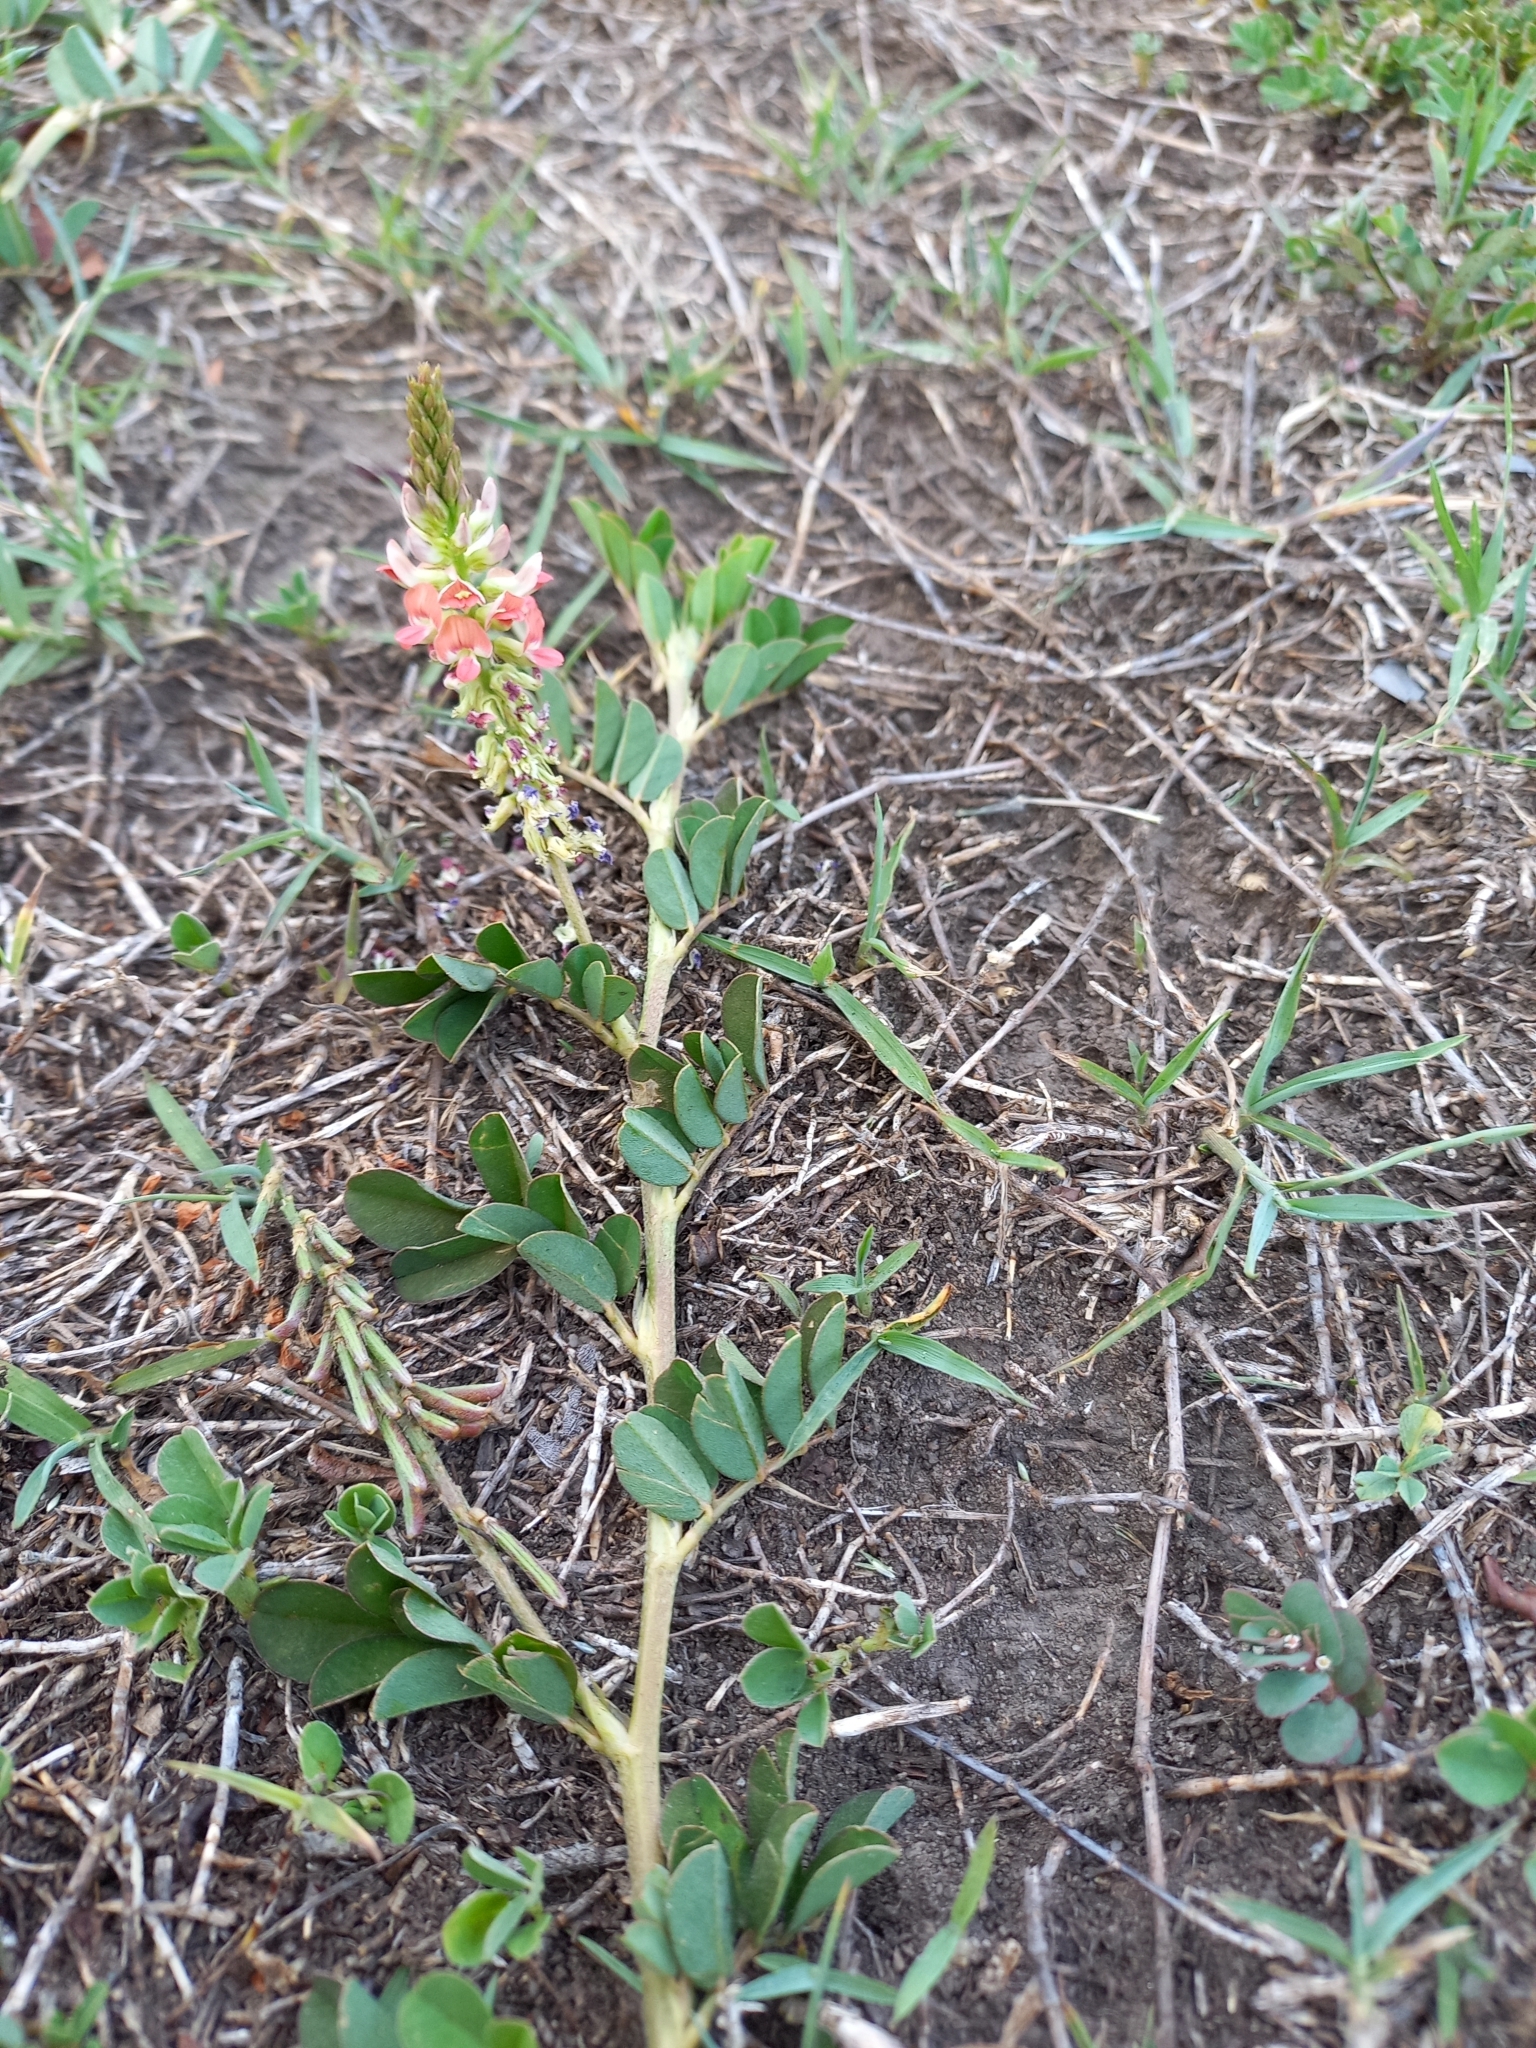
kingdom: Plantae
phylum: Tracheophyta
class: Magnoliopsida
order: Fabales
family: Fabaceae
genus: Indigofera
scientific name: Indigofera spicata
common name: Creeping indigo
